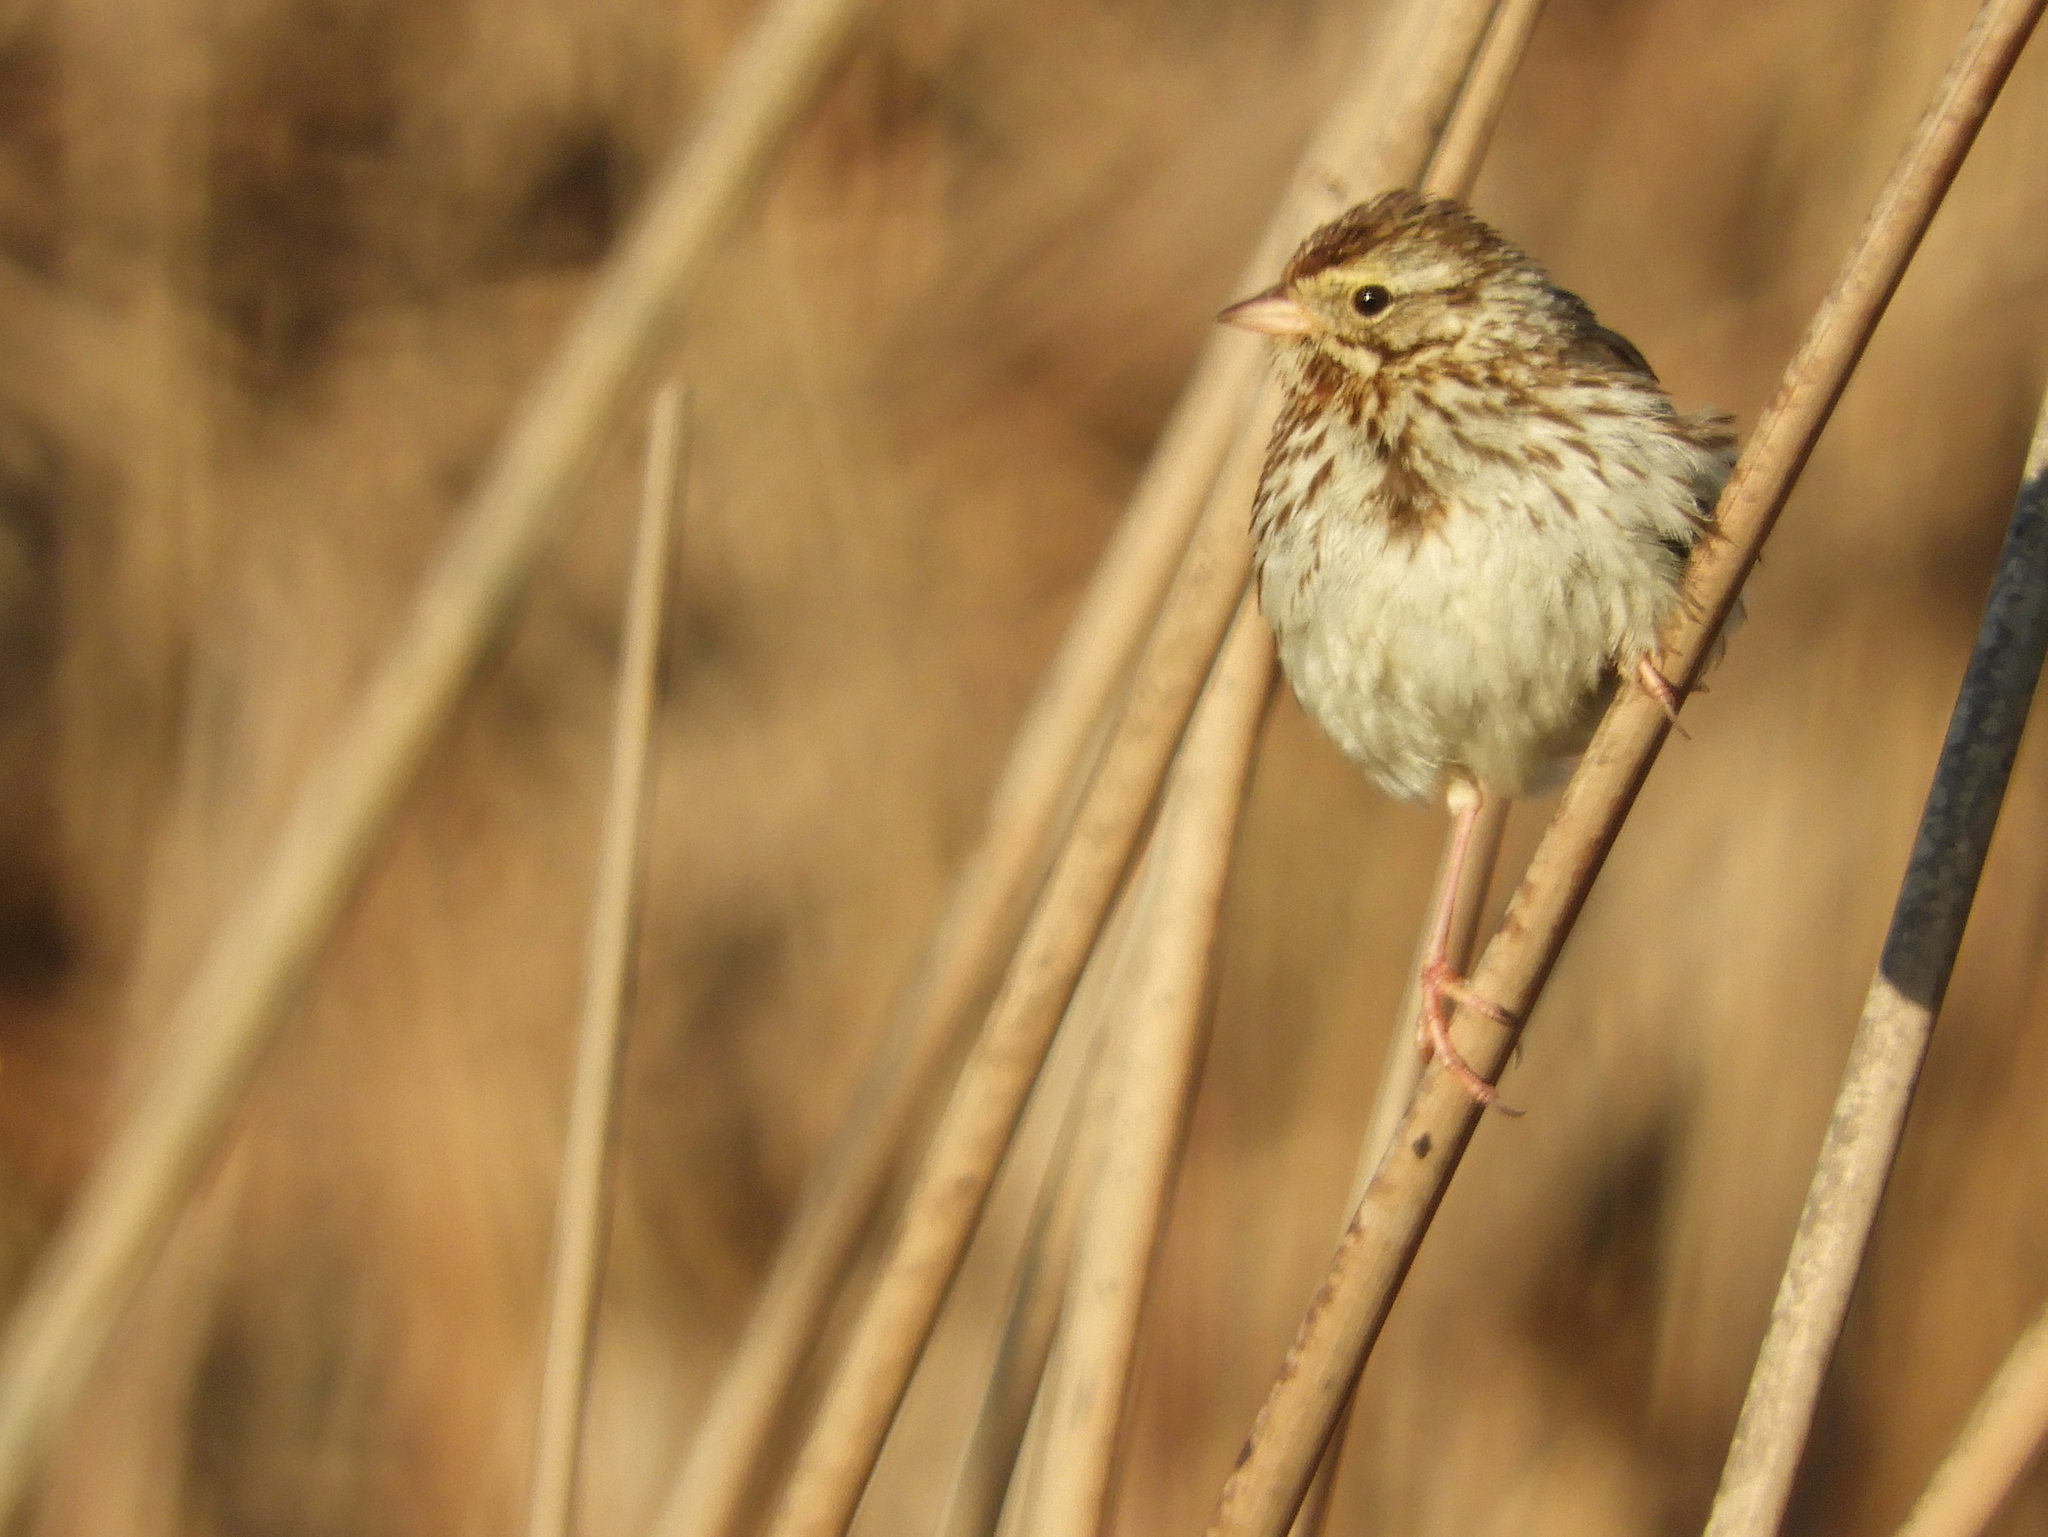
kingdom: Animalia
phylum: Chordata
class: Aves
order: Passeriformes
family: Passerellidae
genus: Passerculus
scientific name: Passerculus sandwichensis
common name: Savannah sparrow
